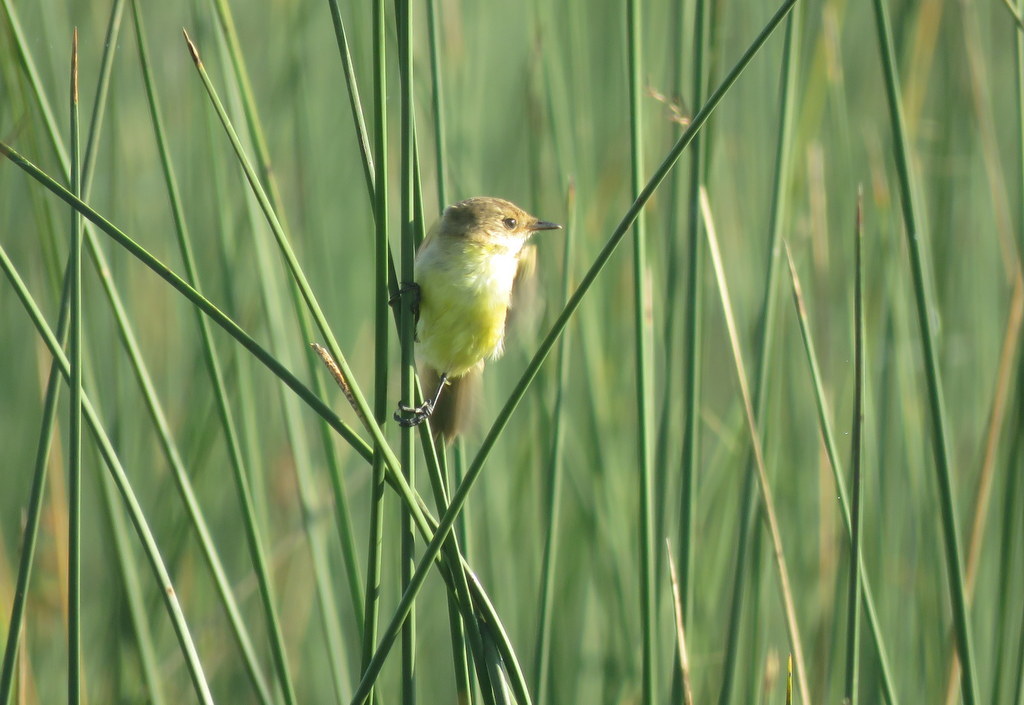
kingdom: Animalia
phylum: Chordata
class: Aves
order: Passeriformes
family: Tyrannidae
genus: Pseudocolopteryx
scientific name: Pseudocolopteryx flaviventris
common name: Warbling doradito
